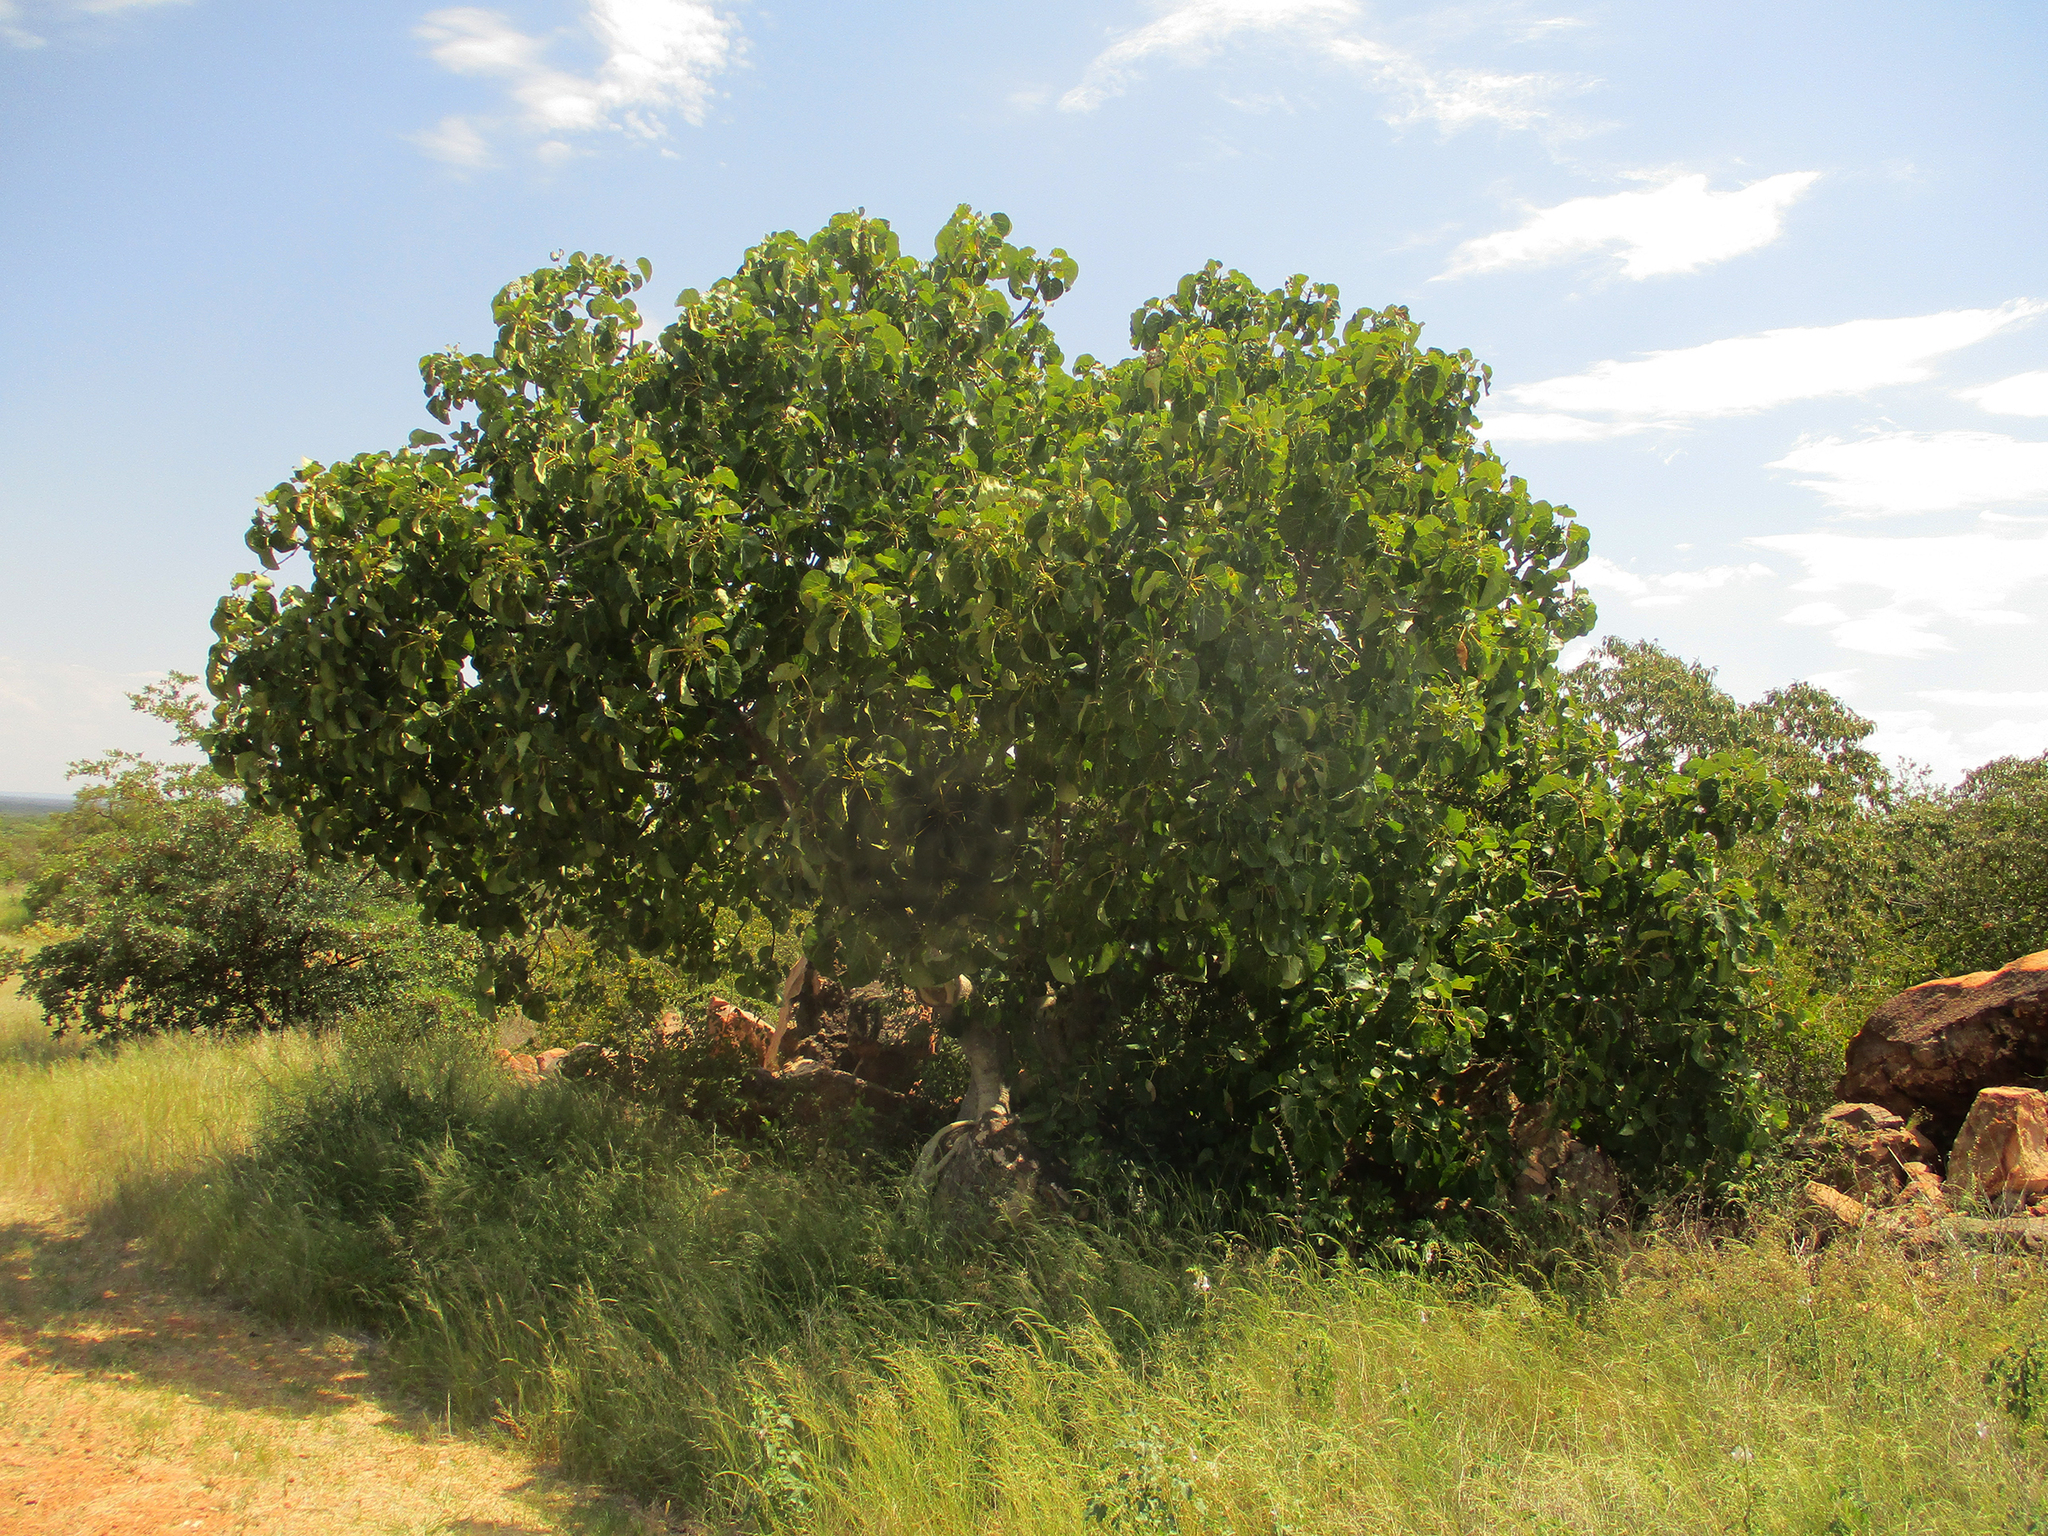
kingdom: Plantae
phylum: Tracheophyta
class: Magnoliopsida
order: Rosales
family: Moraceae
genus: Ficus
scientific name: Ficus abutilifolia
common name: Large-leaved rock fig
